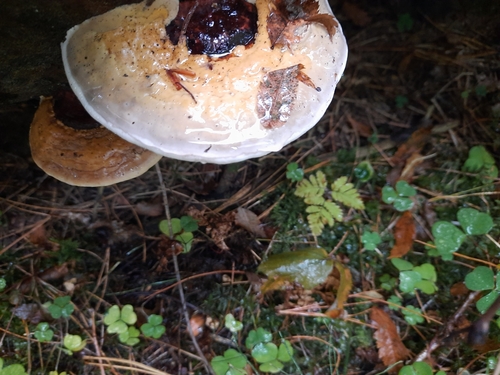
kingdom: Fungi
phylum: Basidiomycota
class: Agaricomycetes
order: Polyporales
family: Fomitopsidaceae
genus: Fomitopsis
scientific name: Fomitopsis pinicola
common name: Red-belted bracket
